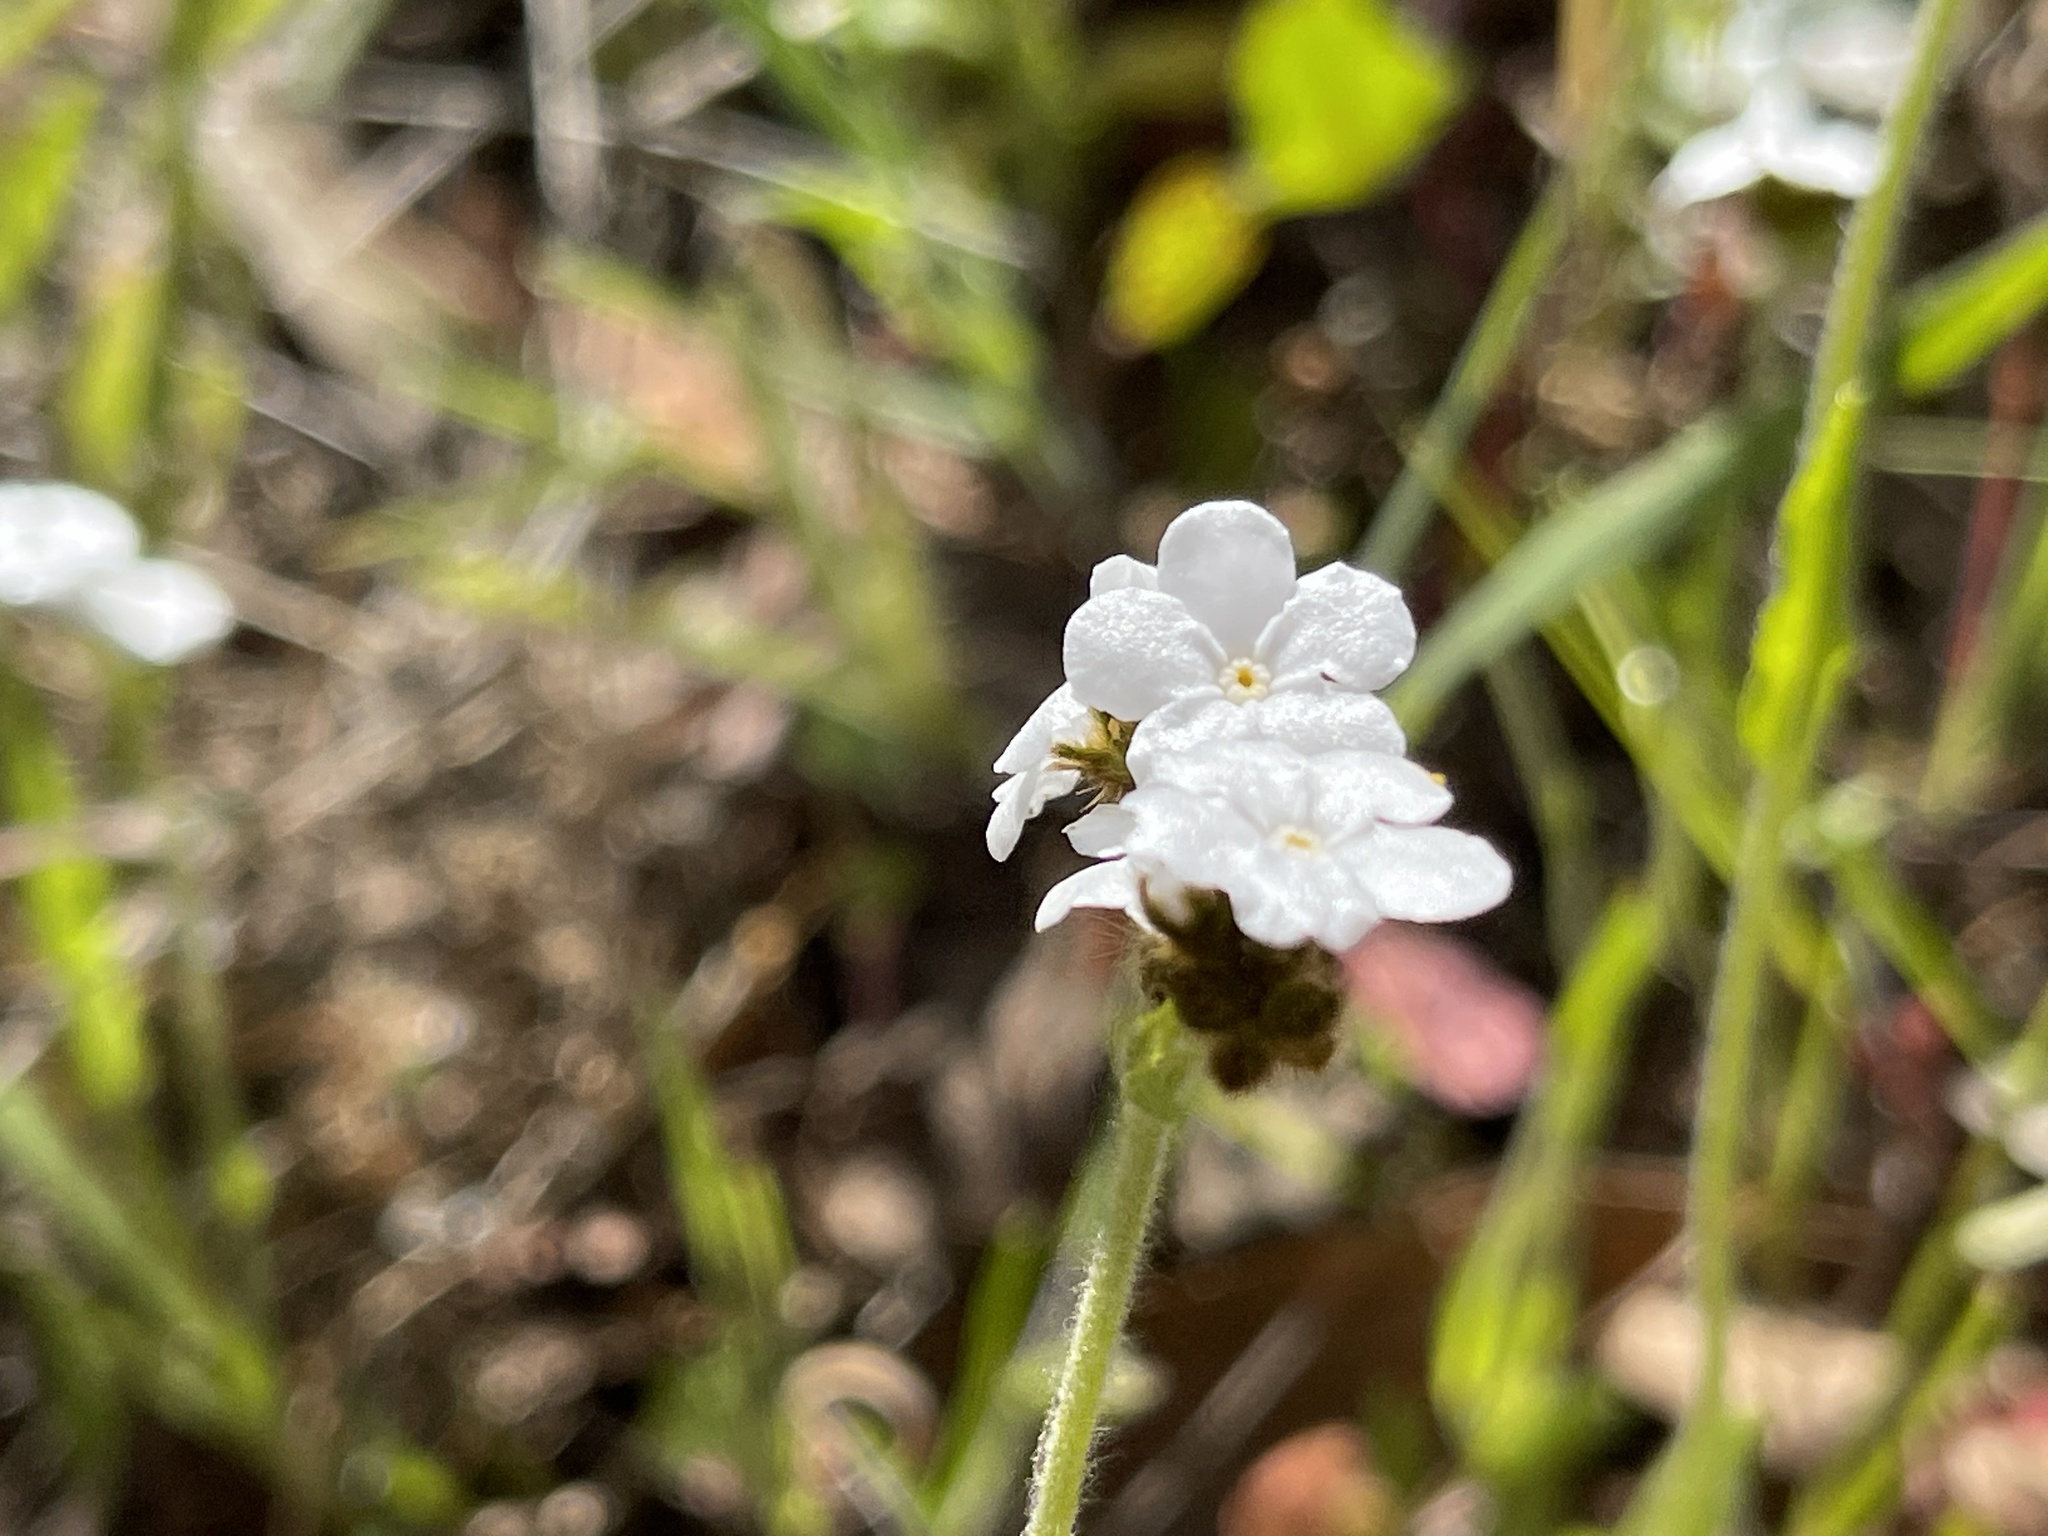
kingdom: Plantae
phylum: Tracheophyta
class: Magnoliopsida
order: Boraginales
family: Boraginaceae
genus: Plagiobothrys
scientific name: Plagiobothrys nothofulvus
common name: Popcorn-flower
